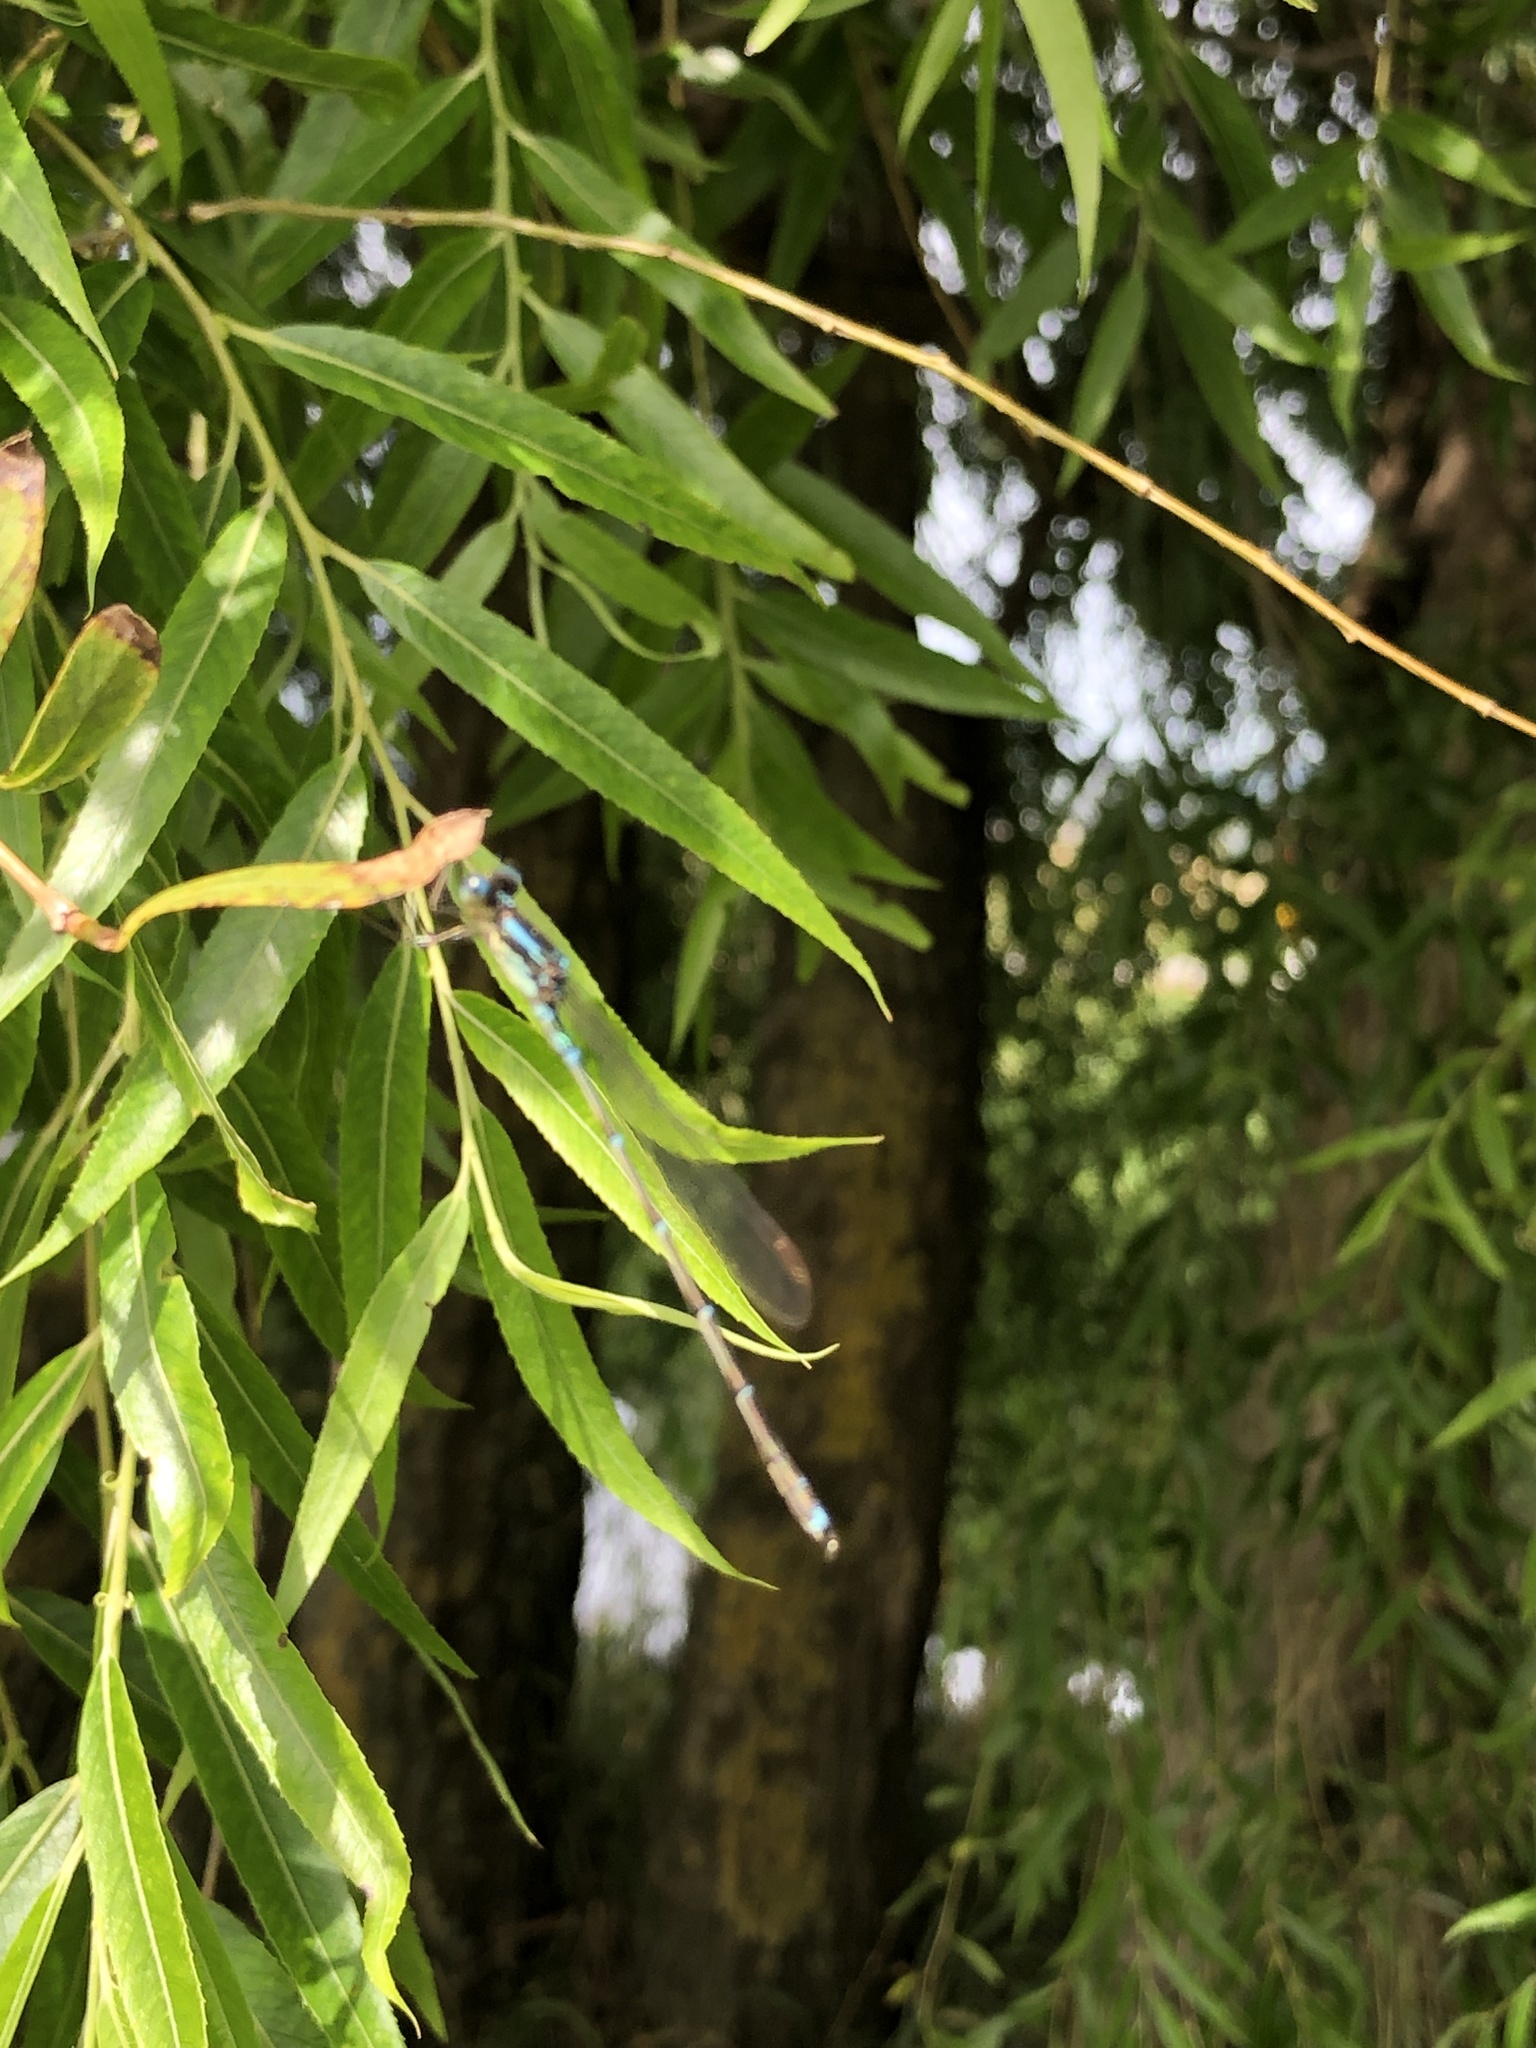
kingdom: Animalia
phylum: Arthropoda
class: Insecta
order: Odonata
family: Lestidae
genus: Austrolestes
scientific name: Austrolestes colensonis
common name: Blue damselfly
